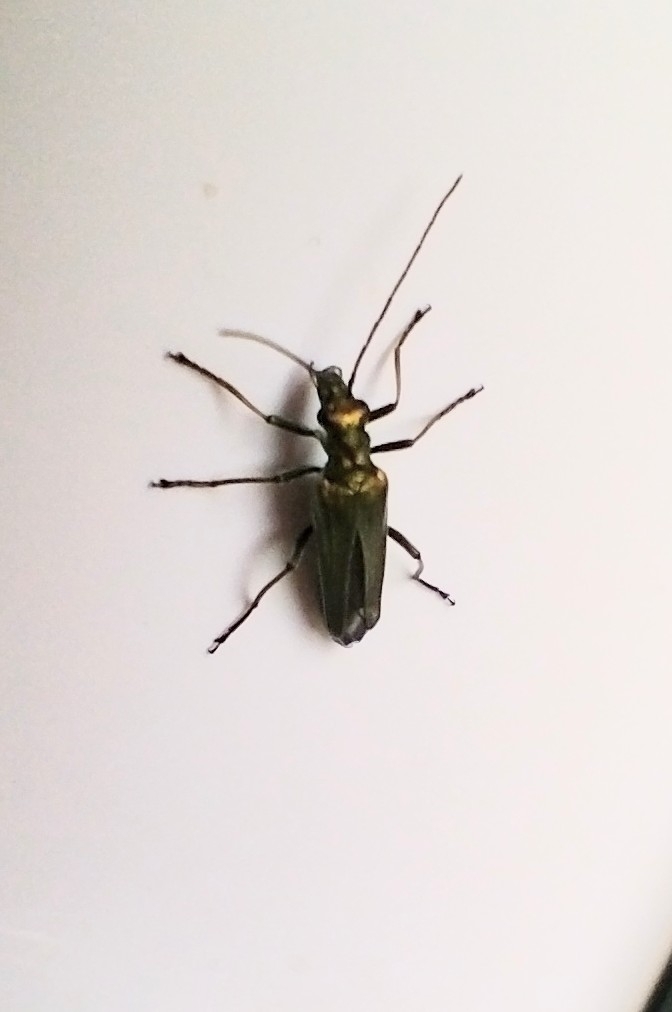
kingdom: Animalia
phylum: Arthropoda
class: Insecta
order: Coleoptera
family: Oedemeridae
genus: Oedemera
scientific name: Oedemera nobilis
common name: Swollen-thighed beetle
